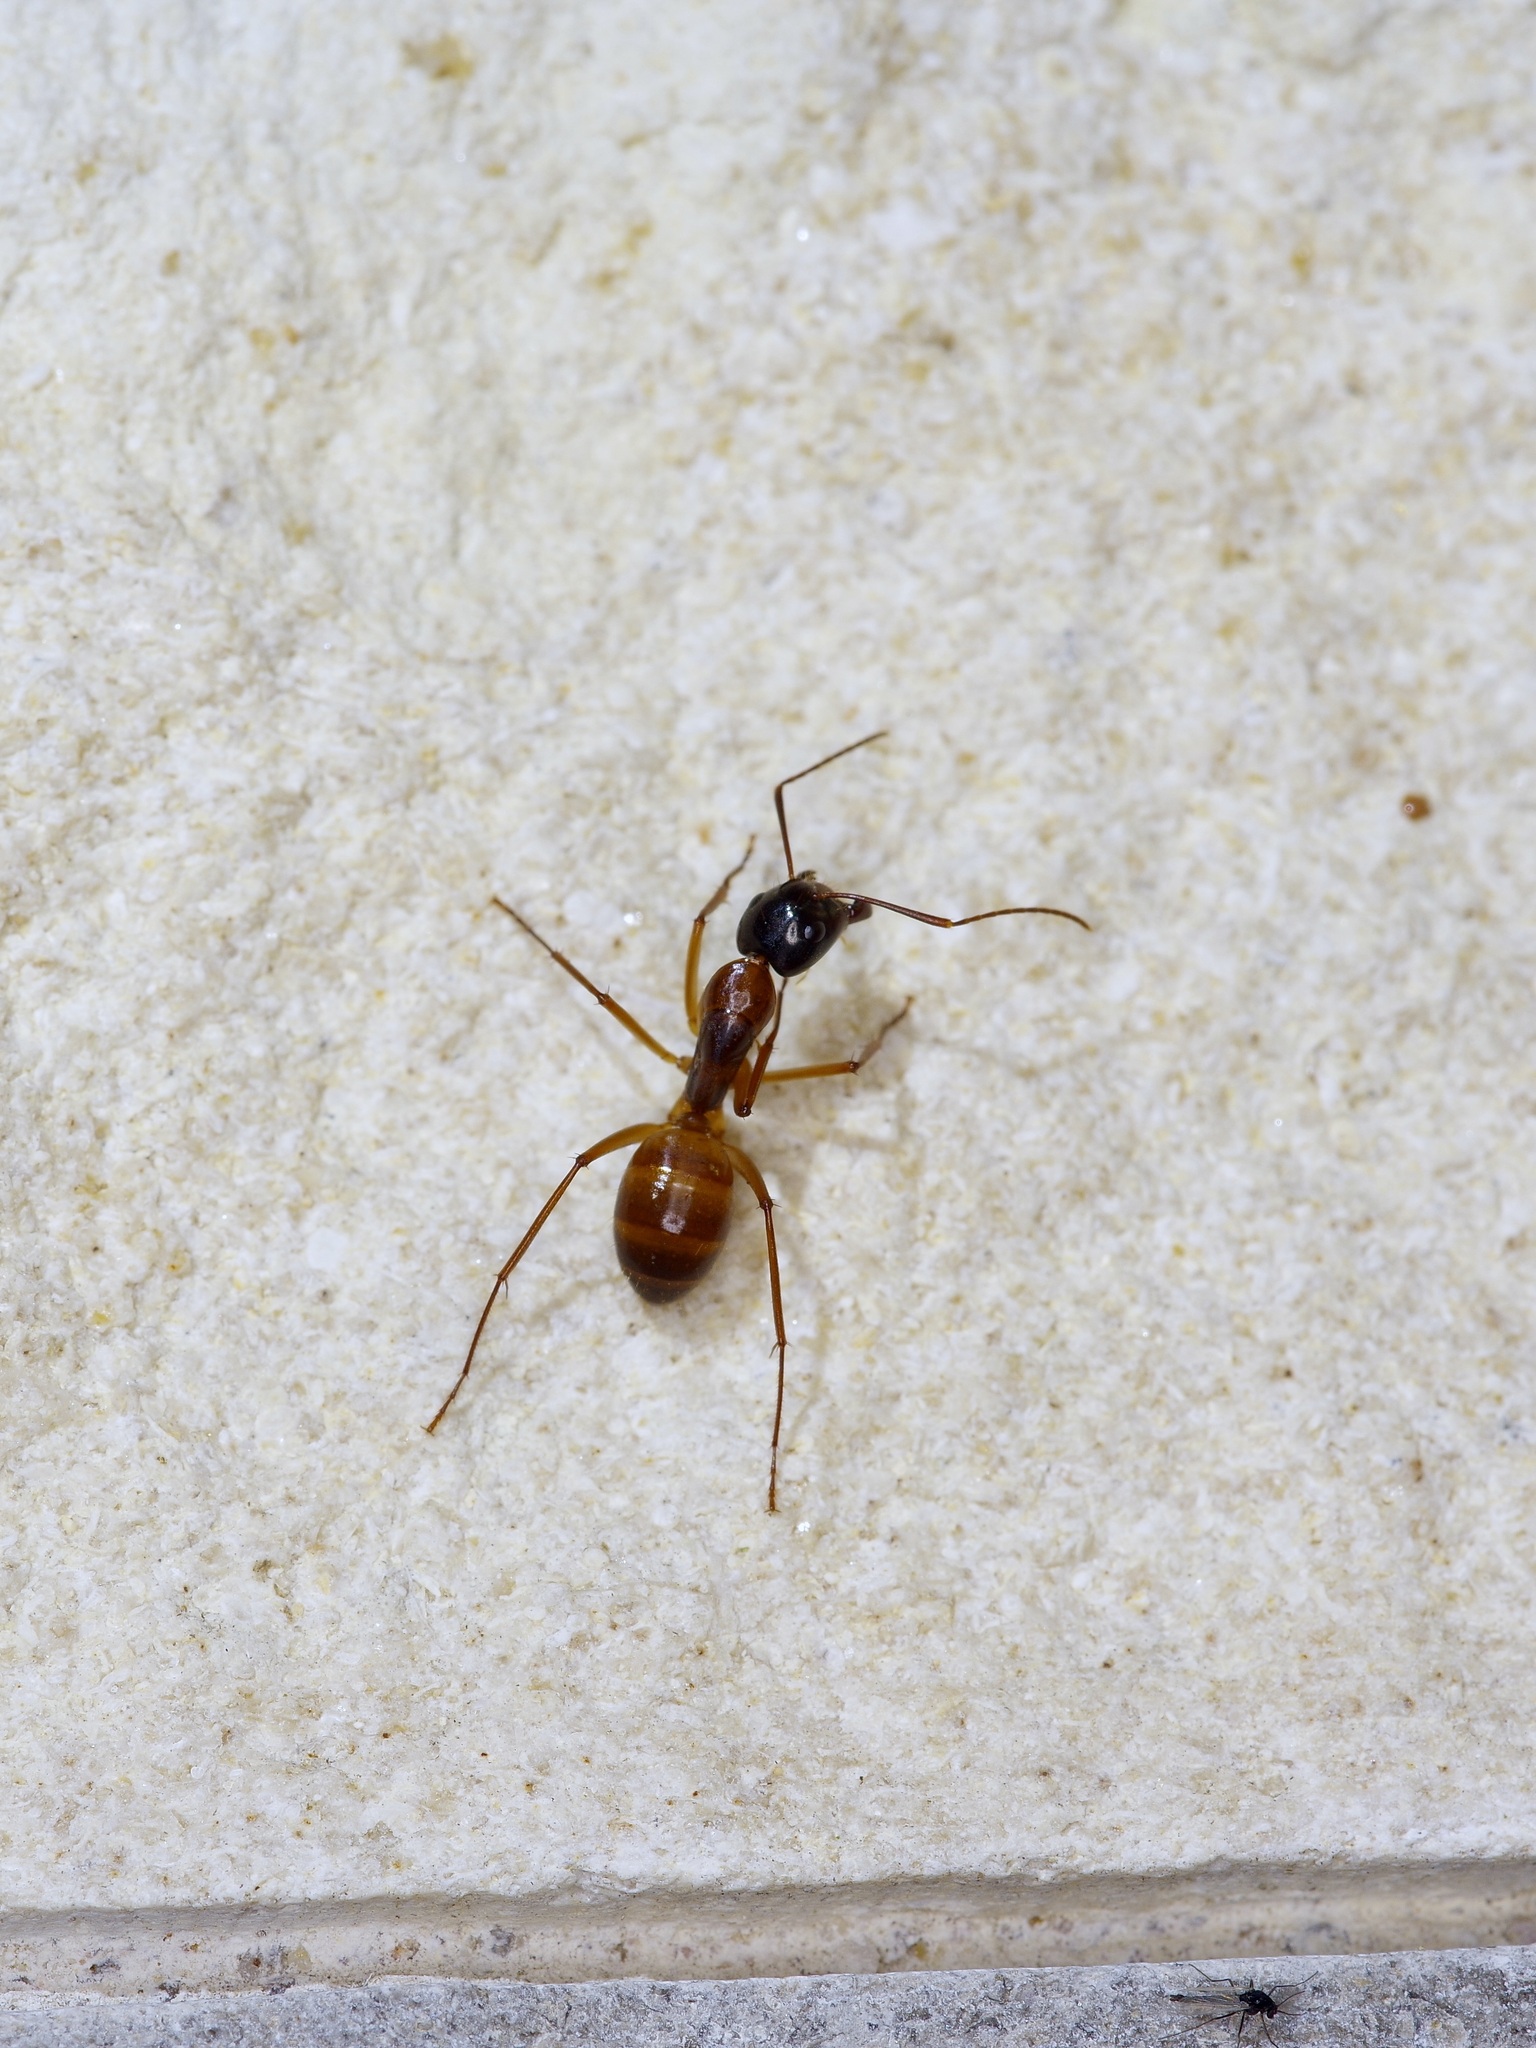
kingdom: Animalia
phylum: Arthropoda
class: Insecta
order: Hymenoptera
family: Formicidae
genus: Camponotus
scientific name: Camponotus americanus
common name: American carpenter ant
